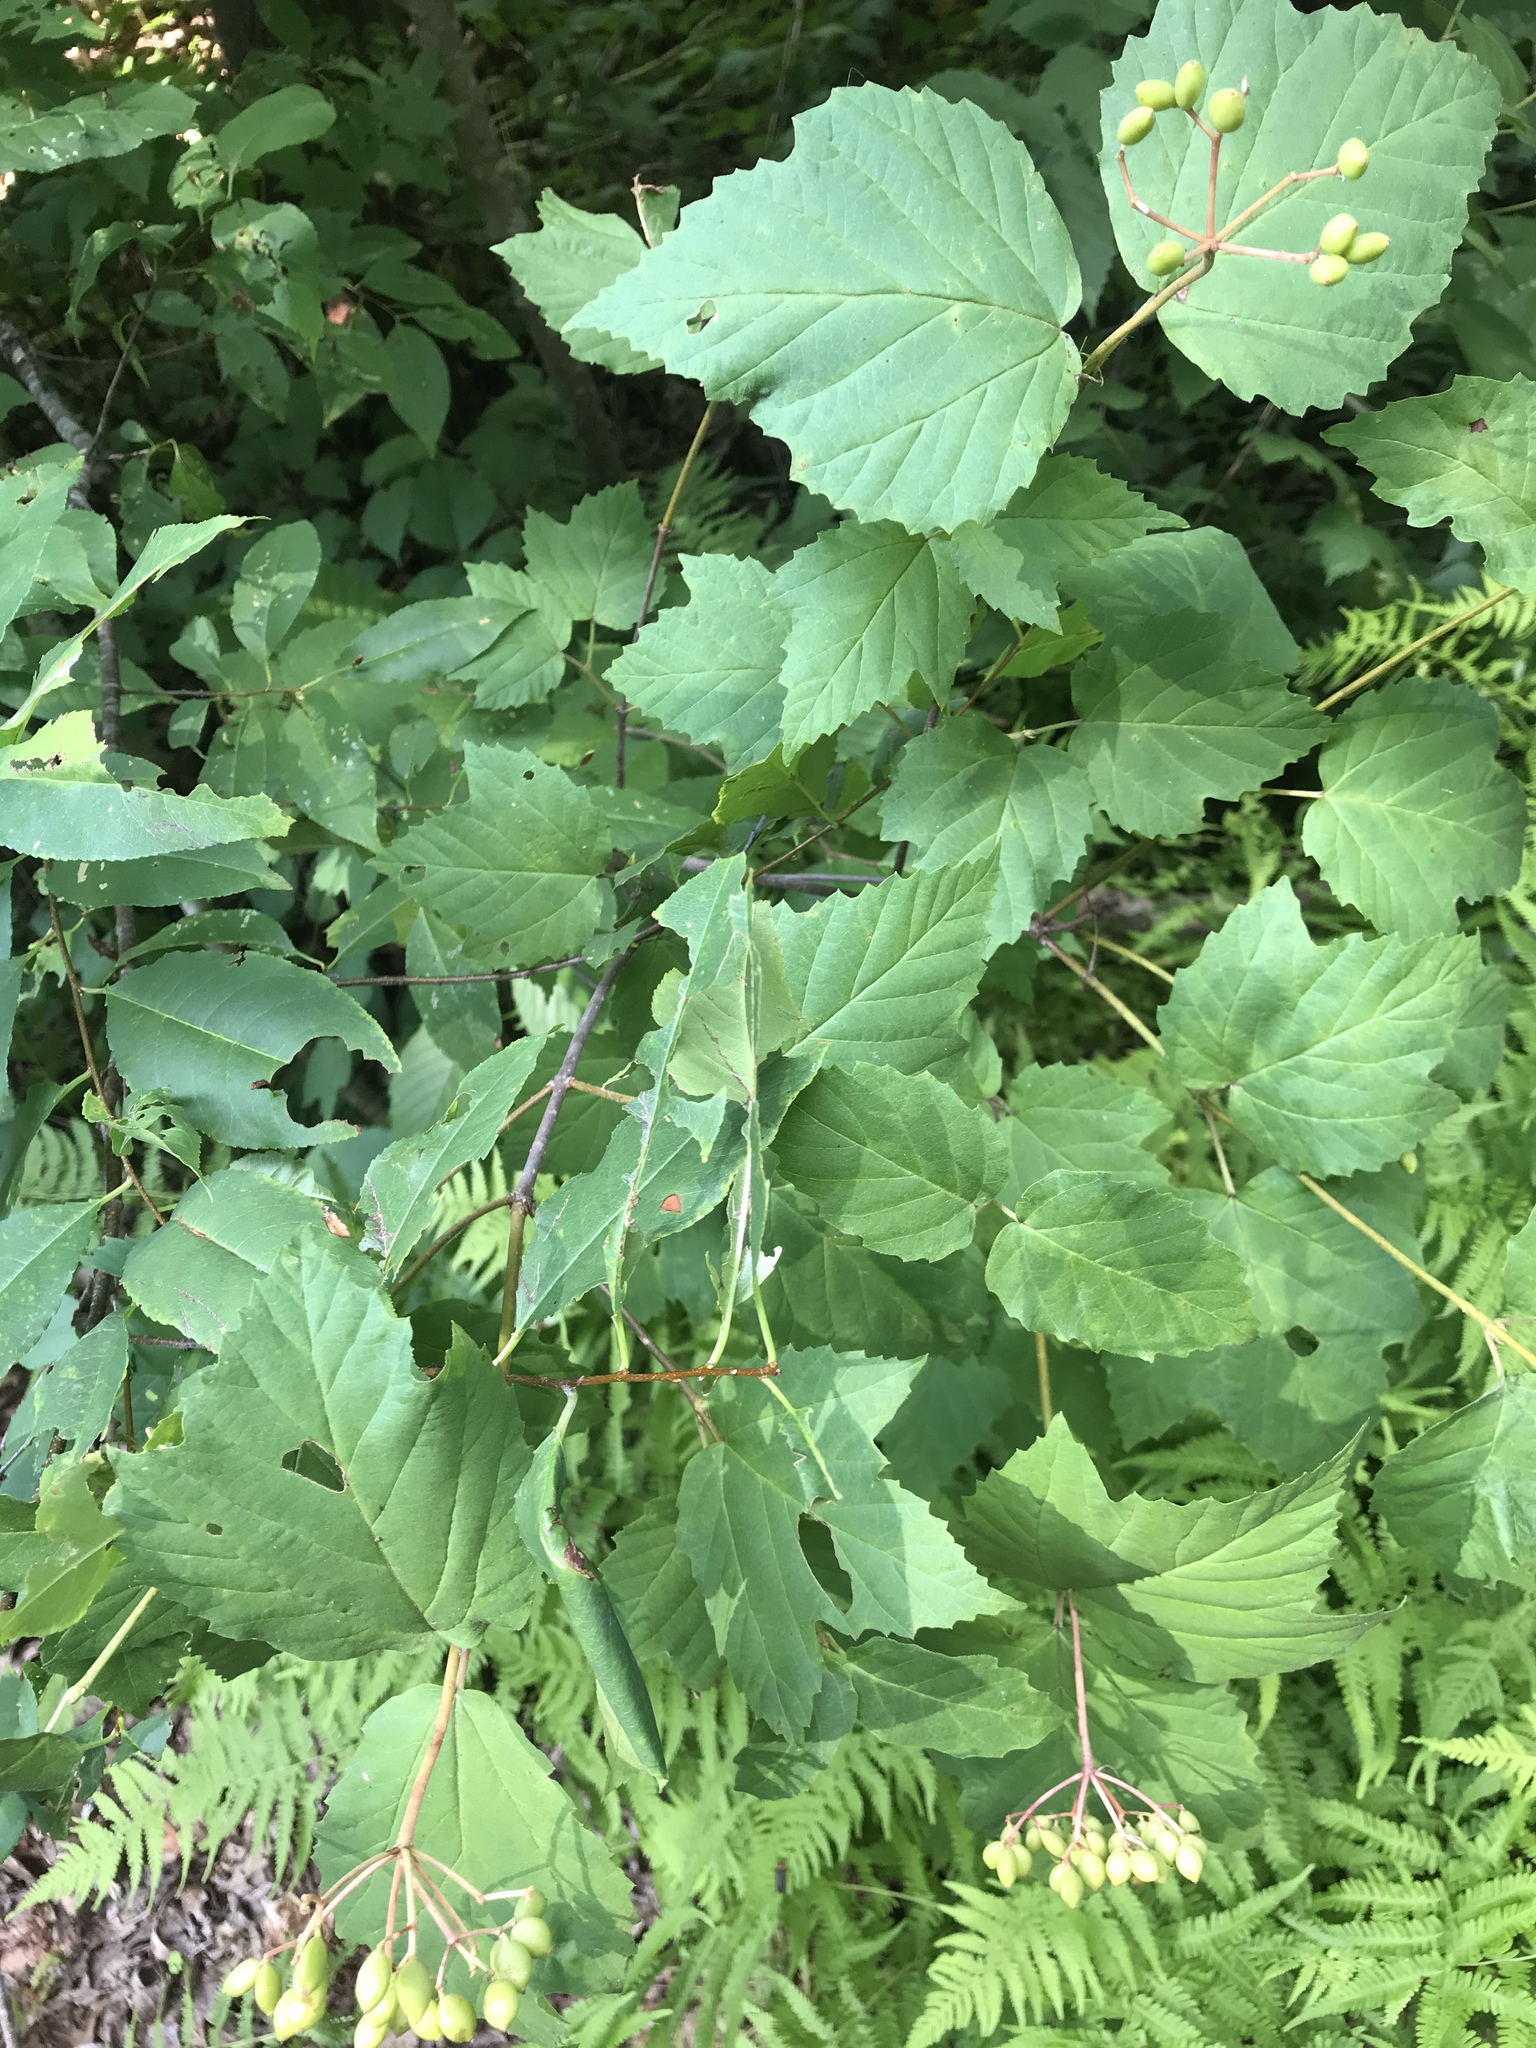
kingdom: Plantae
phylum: Tracheophyta
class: Magnoliopsida
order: Dipsacales
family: Viburnaceae
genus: Viburnum
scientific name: Viburnum acerifolium
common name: Dockmackie
